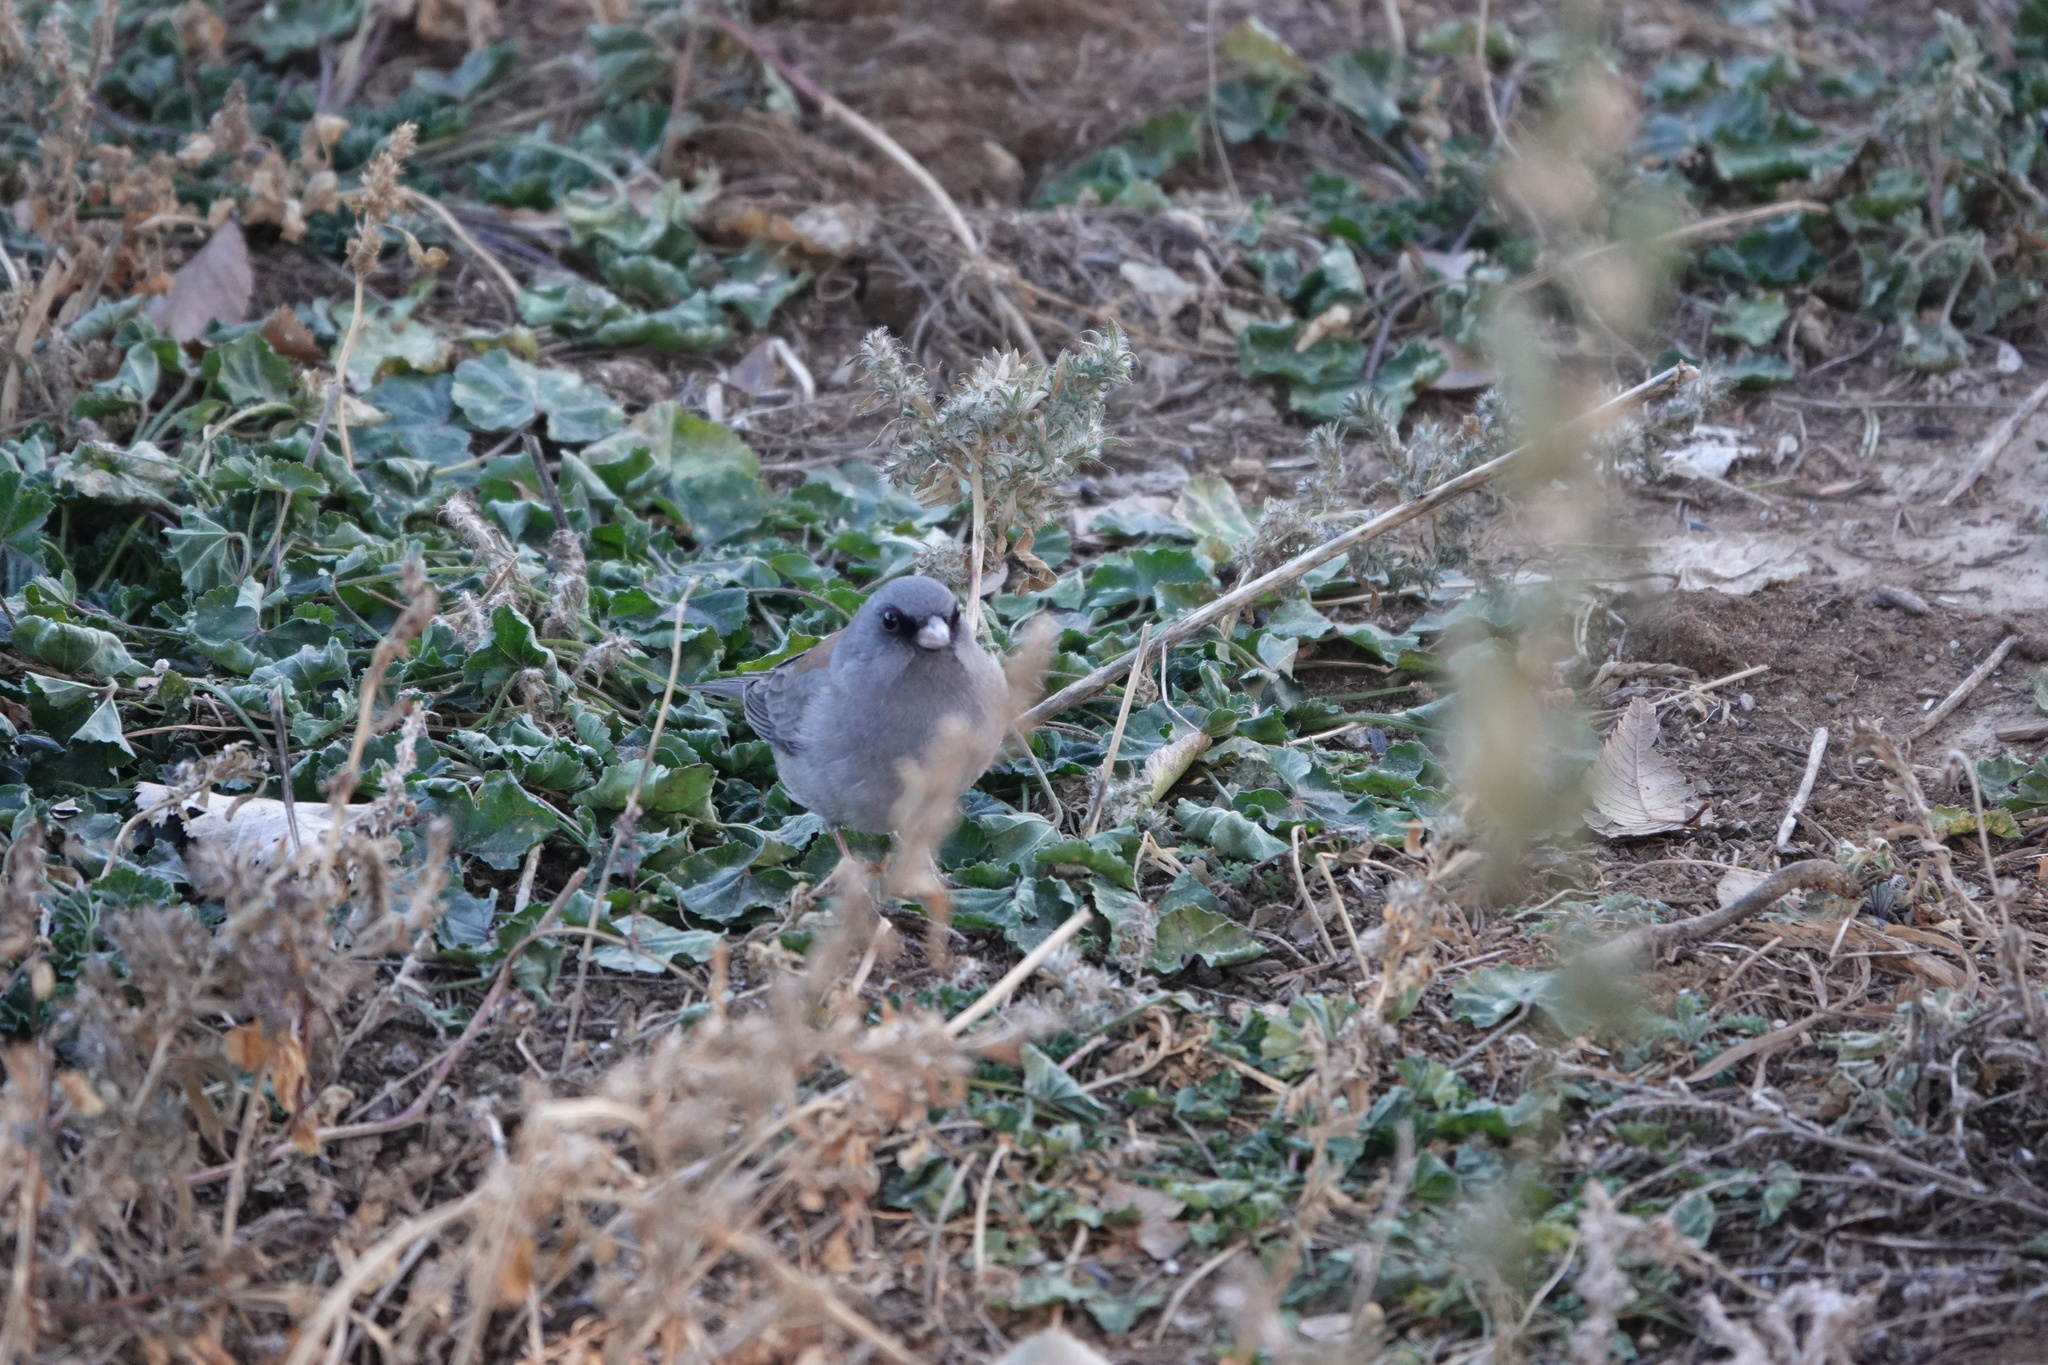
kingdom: Animalia
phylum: Chordata
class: Aves
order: Passeriformes
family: Passerellidae
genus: Junco
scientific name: Junco hyemalis
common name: Dark-eyed junco
